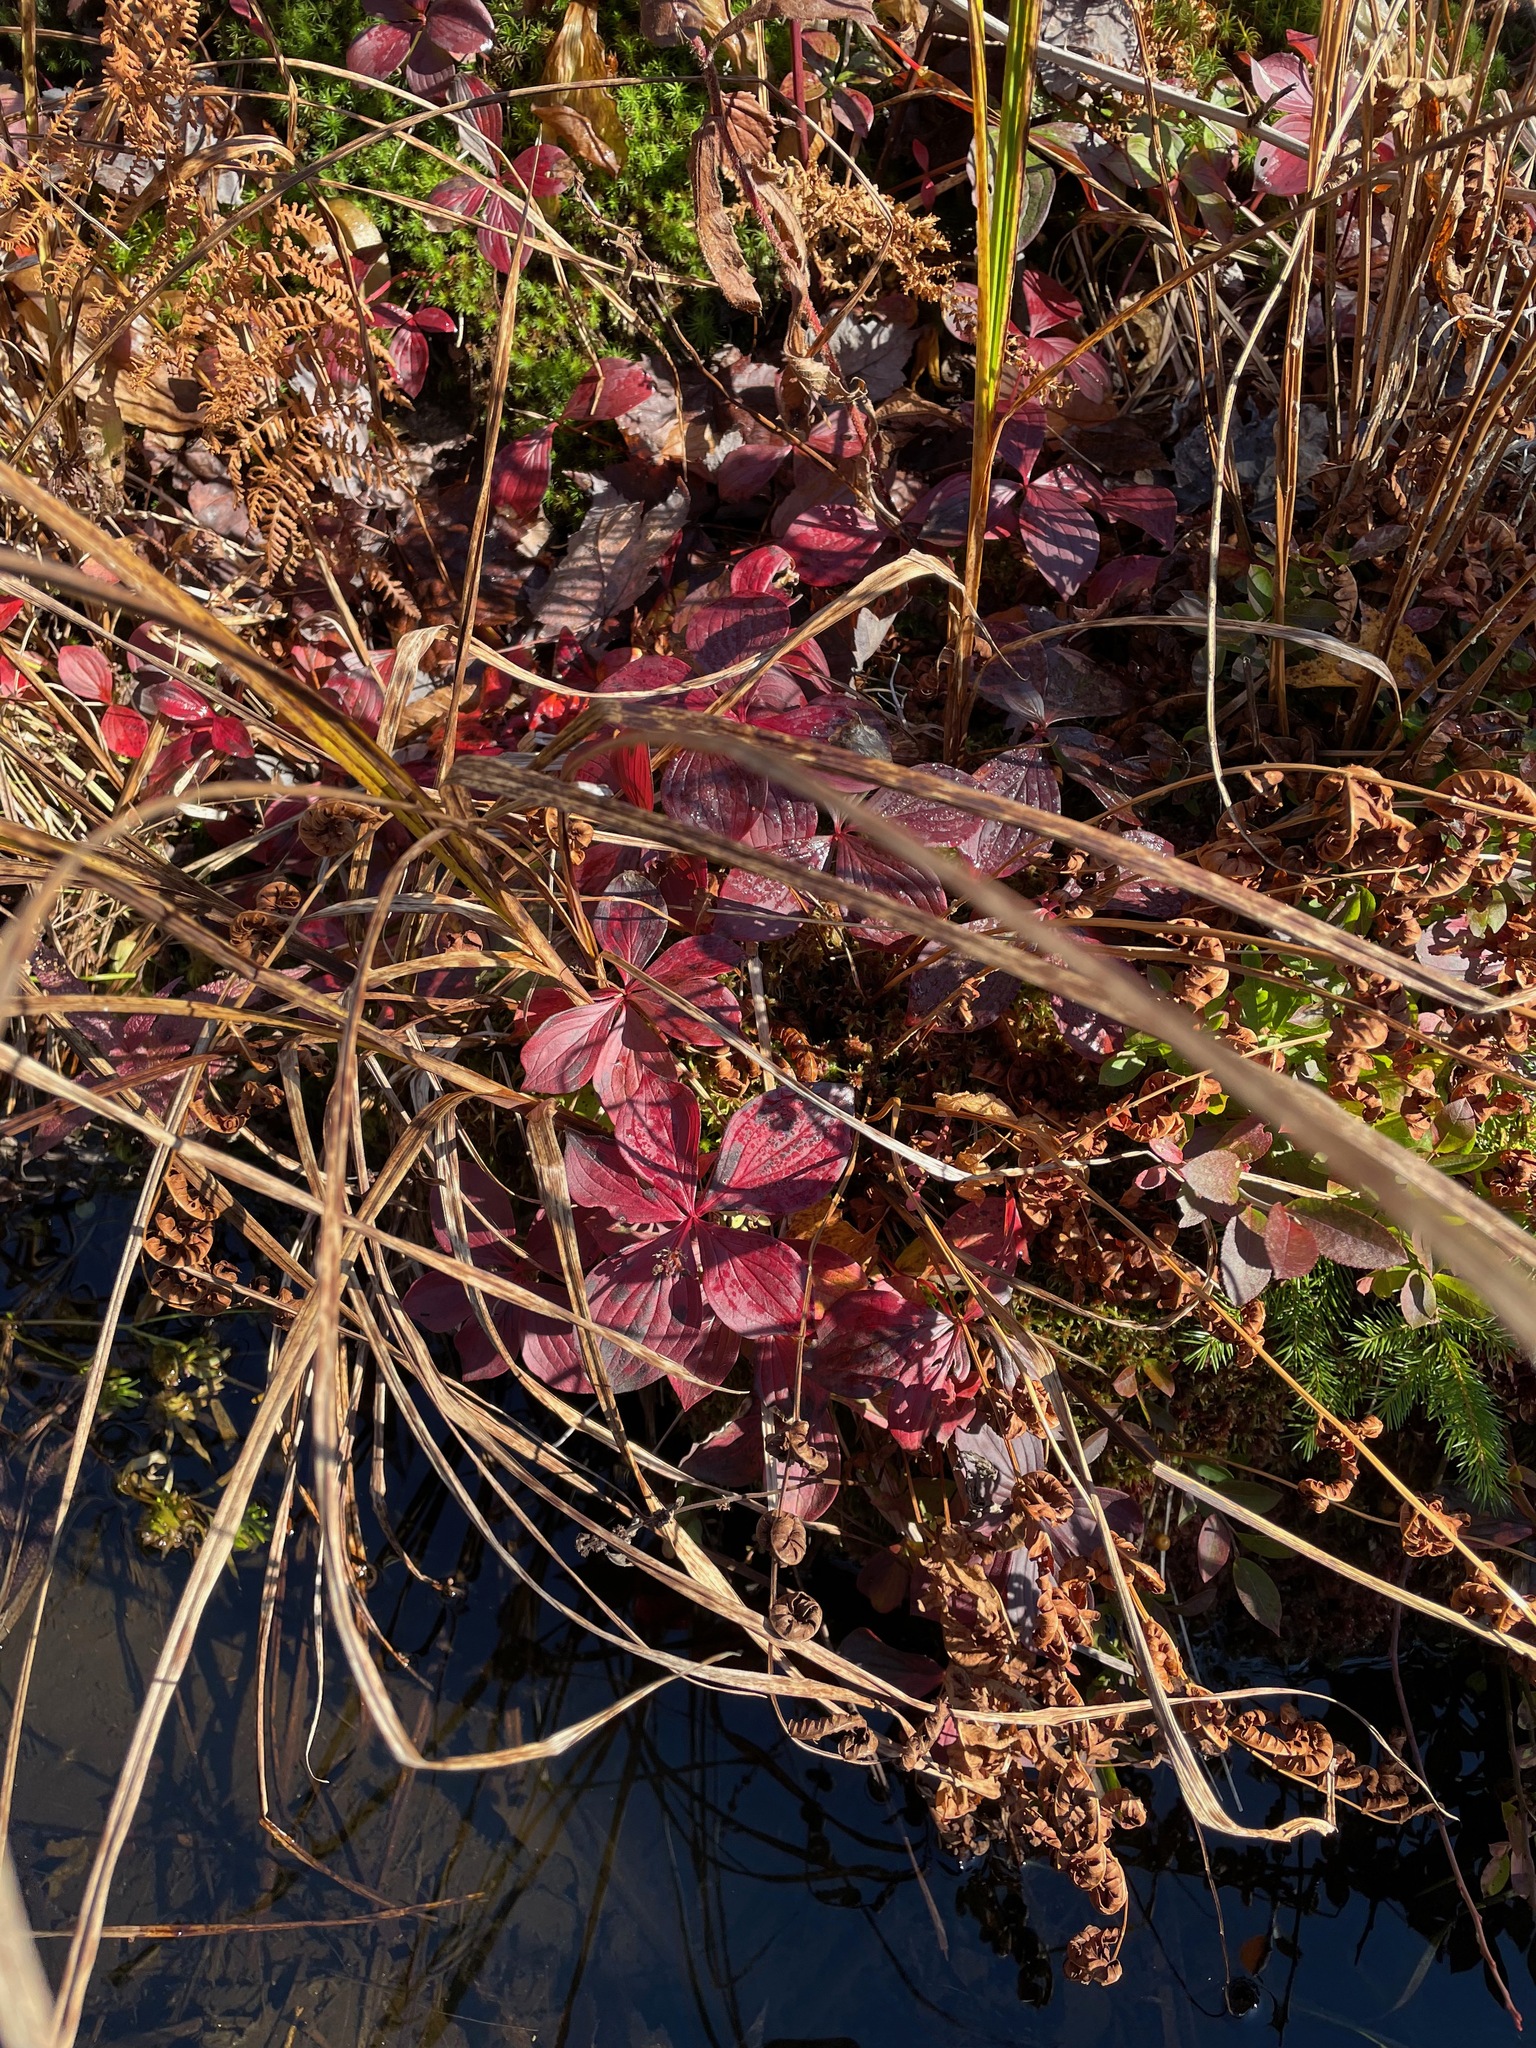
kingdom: Plantae
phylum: Tracheophyta
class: Magnoliopsida
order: Cornales
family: Cornaceae
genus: Cornus
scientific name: Cornus canadensis
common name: Creeping dogwood
